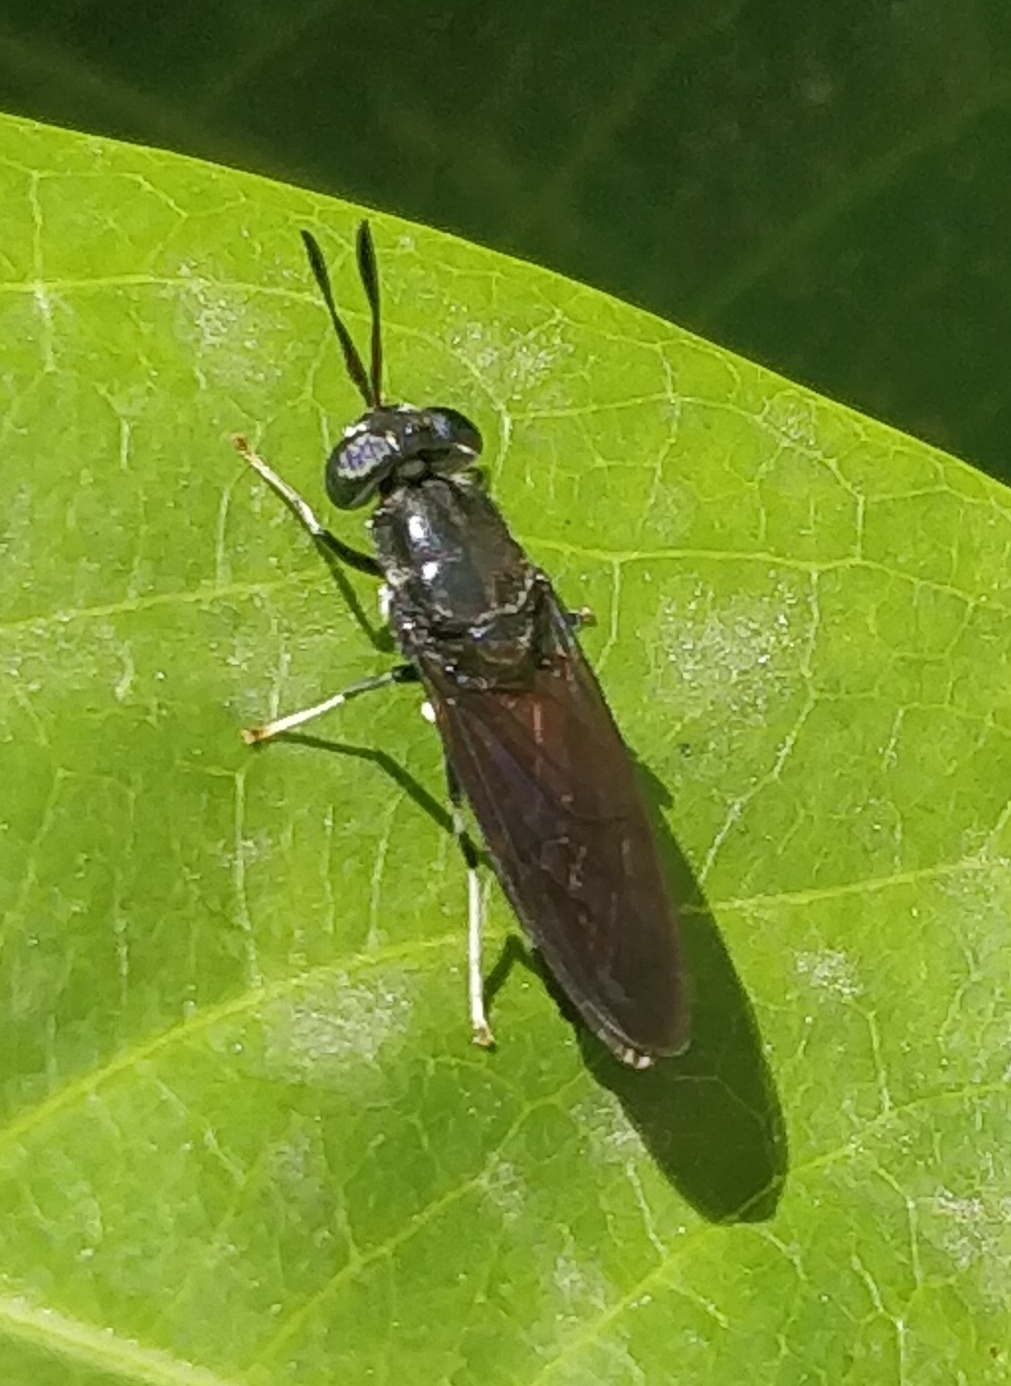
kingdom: Animalia
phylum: Arthropoda
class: Insecta
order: Diptera
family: Stratiomyidae
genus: Hermetia
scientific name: Hermetia illucens
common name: Black soldier fly
